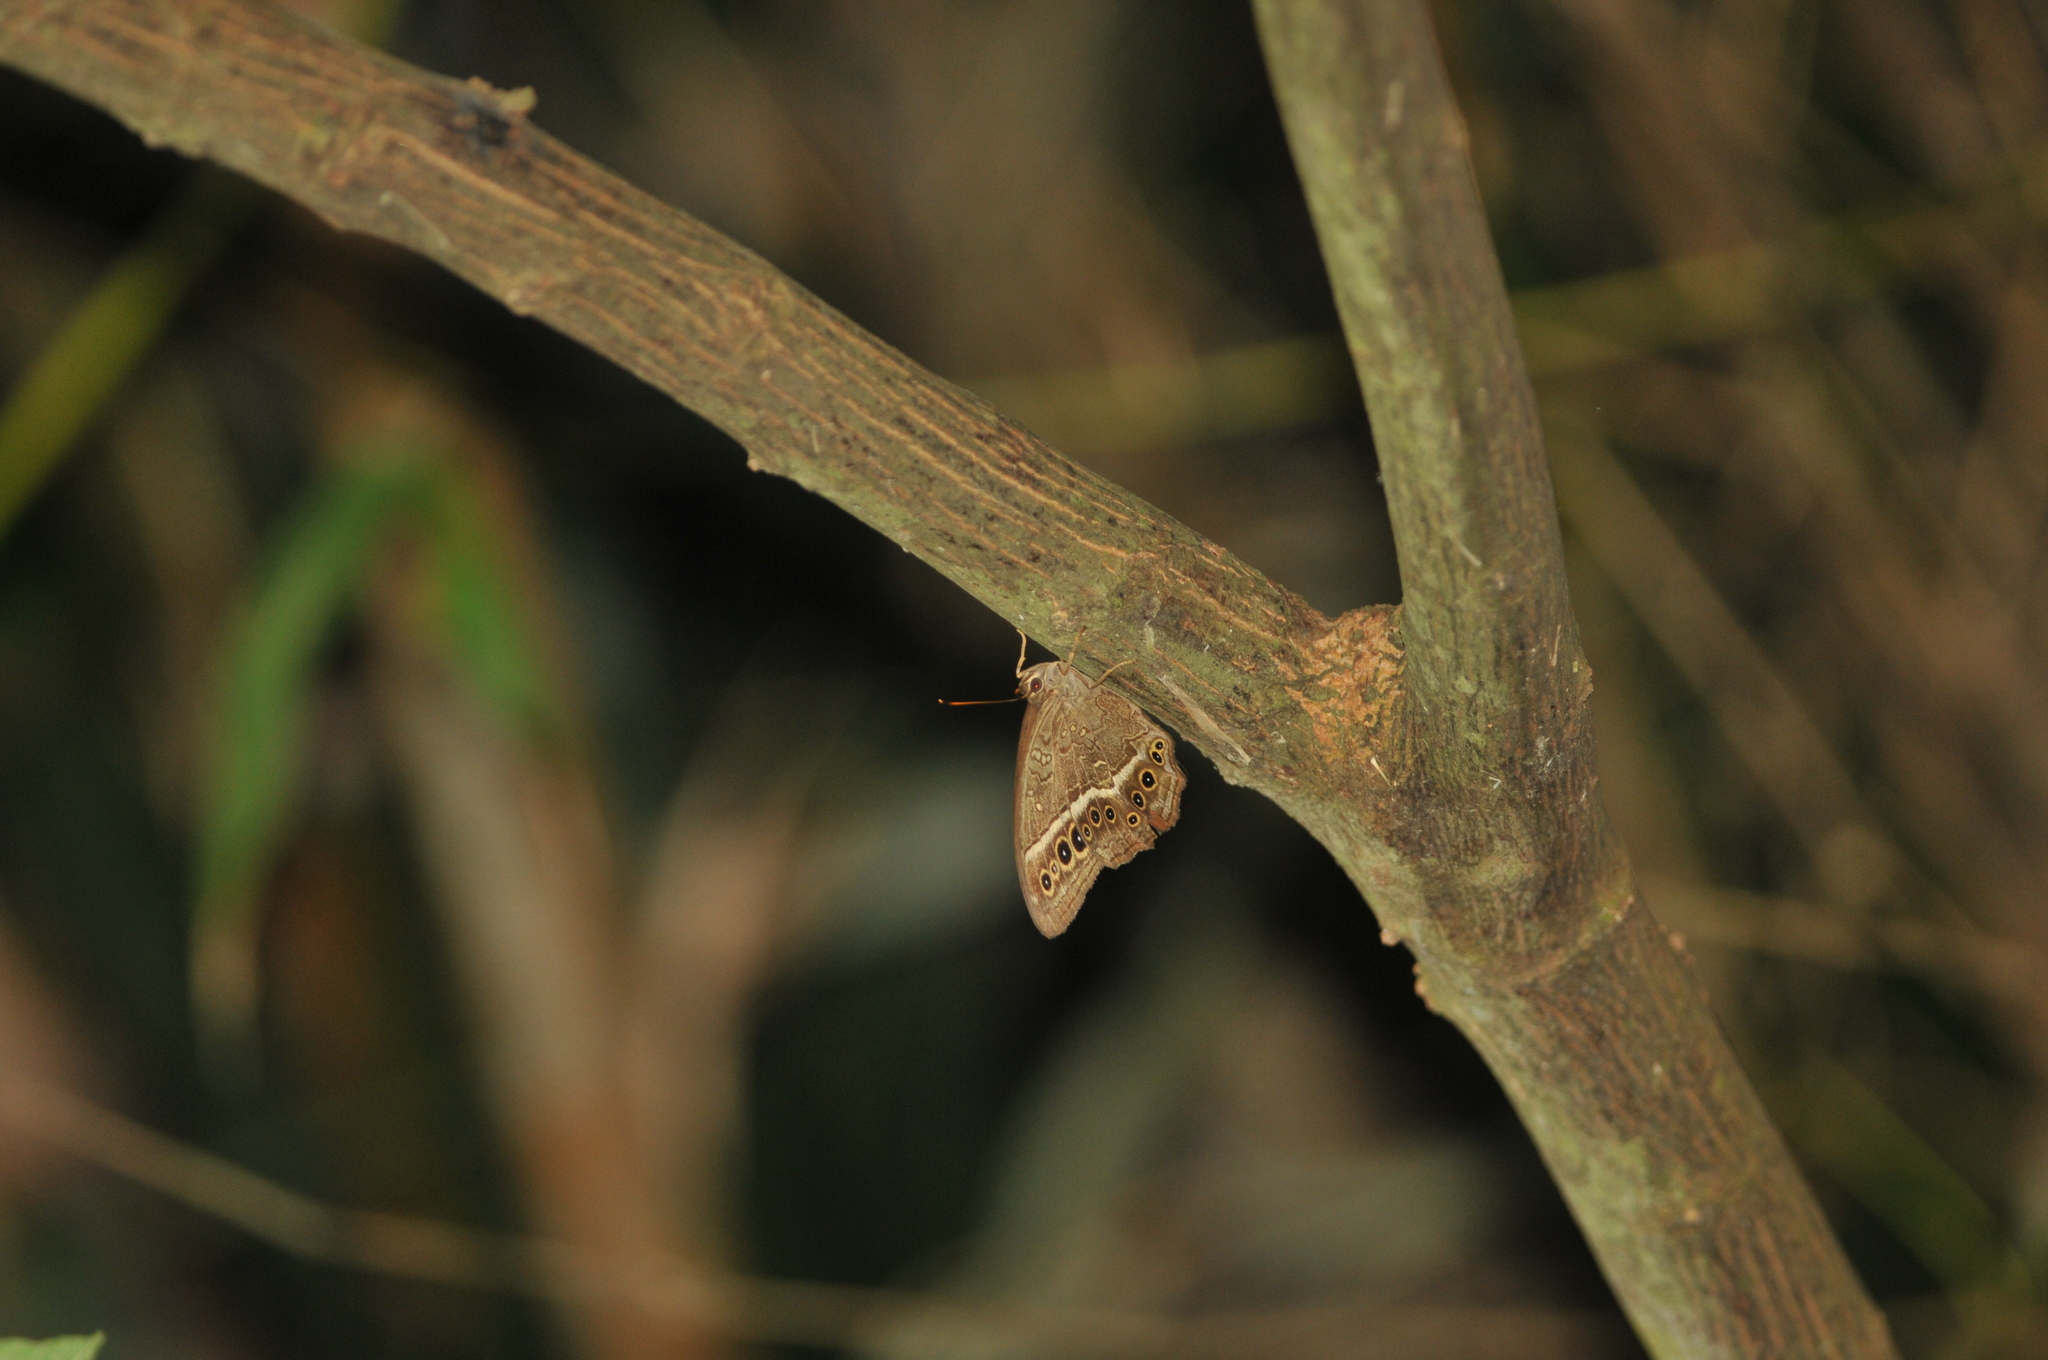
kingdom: Animalia
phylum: Arthropoda
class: Insecta
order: Lepidoptera
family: Nymphalidae
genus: Neope
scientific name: Neope muirheadii
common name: Black-spotted labyrinth
